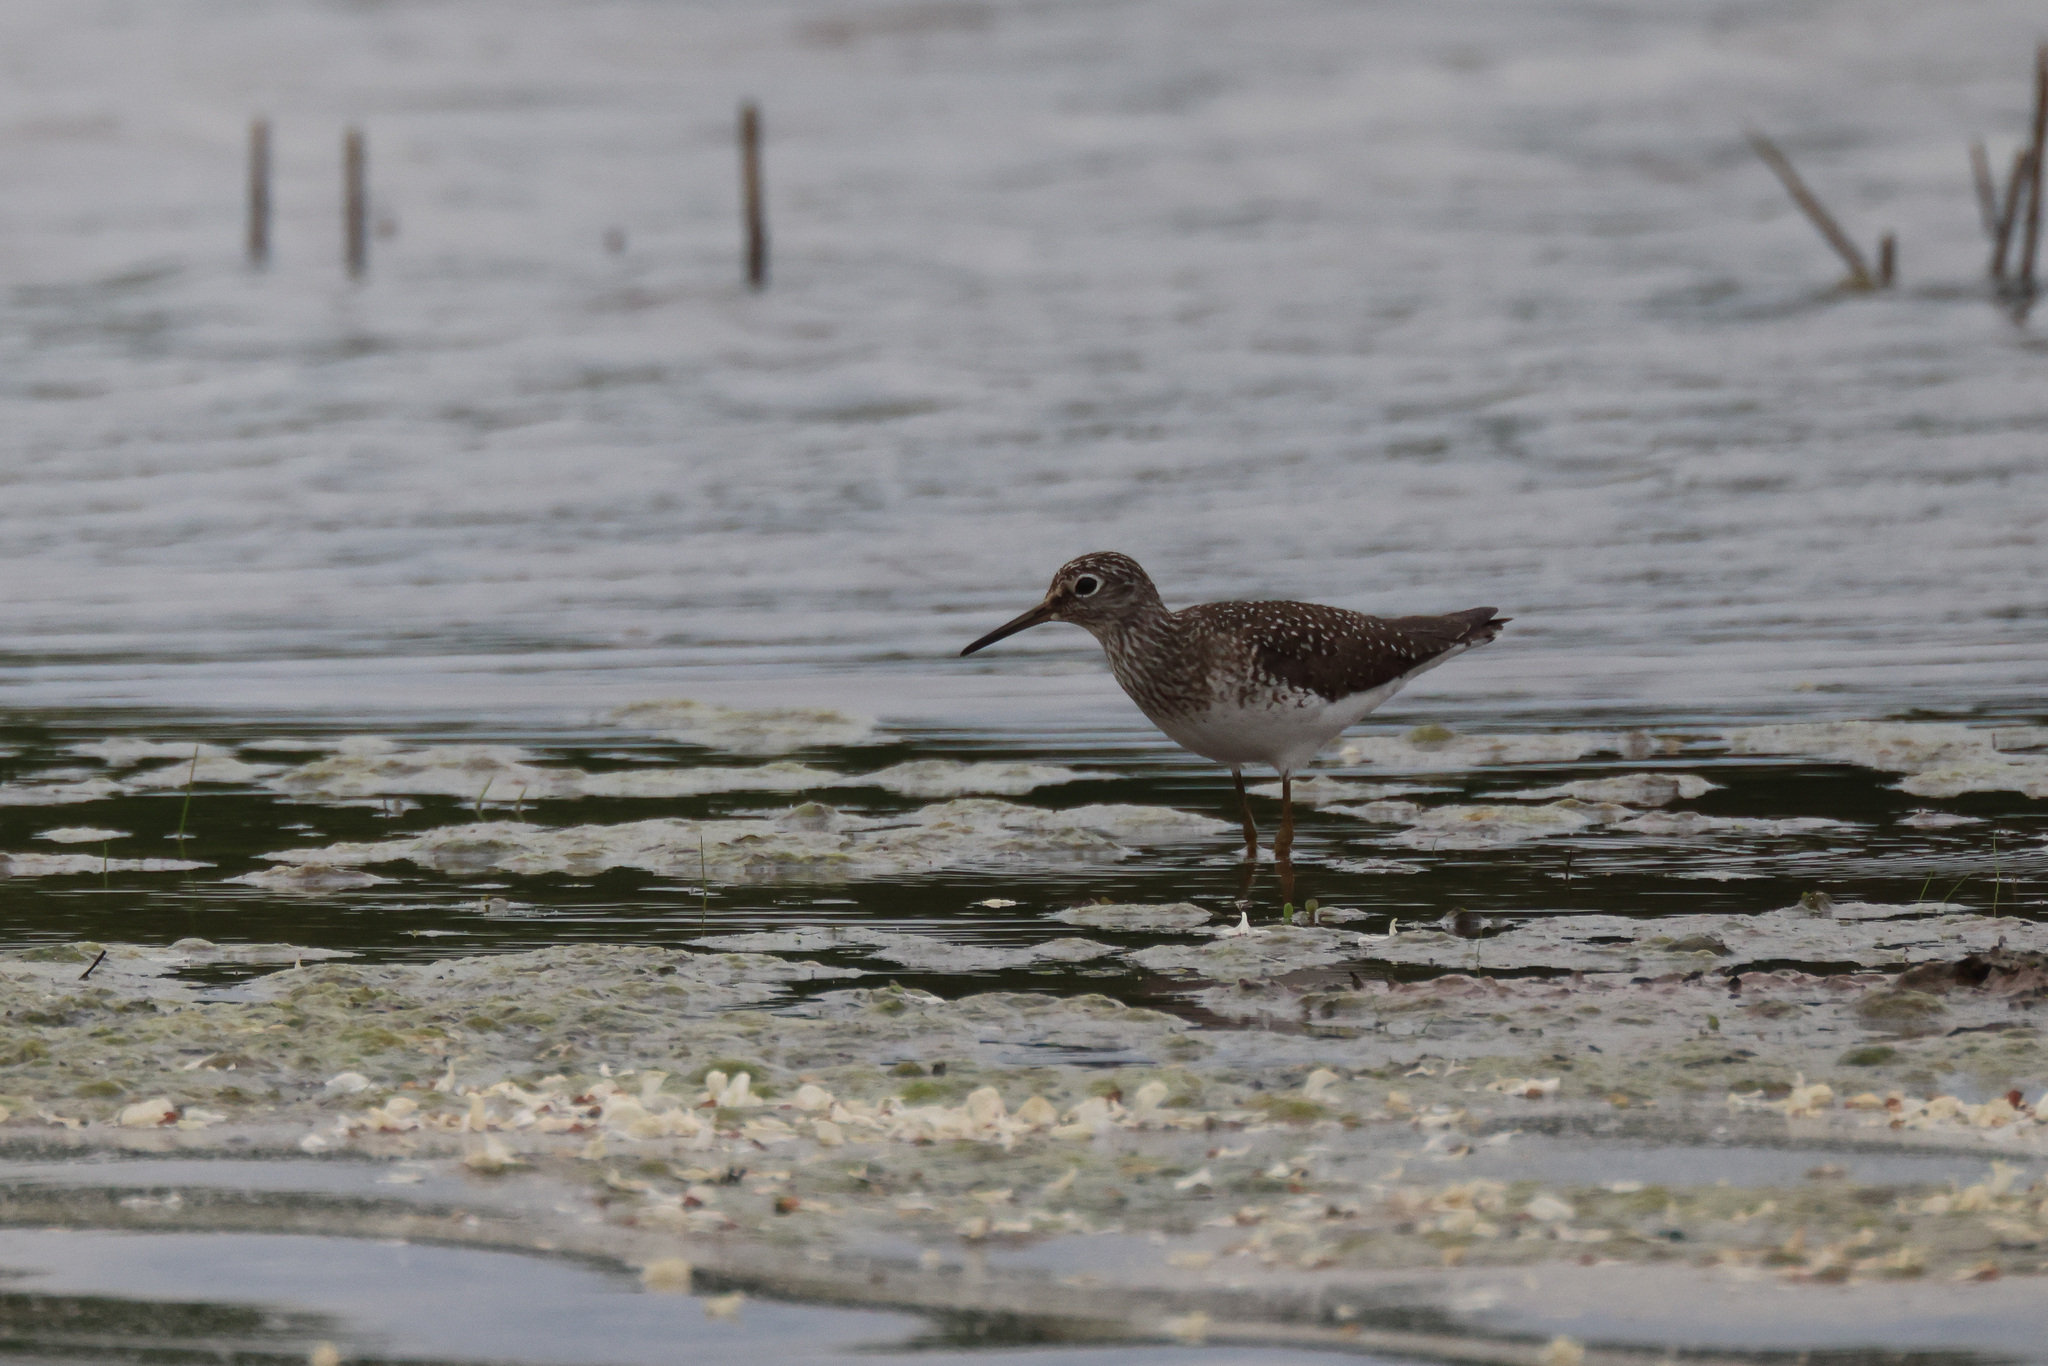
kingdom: Animalia
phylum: Chordata
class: Aves
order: Charadriiformes
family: Scolopacidae
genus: Tringa
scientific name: Tringa solitaria
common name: Solitary sandpiper
